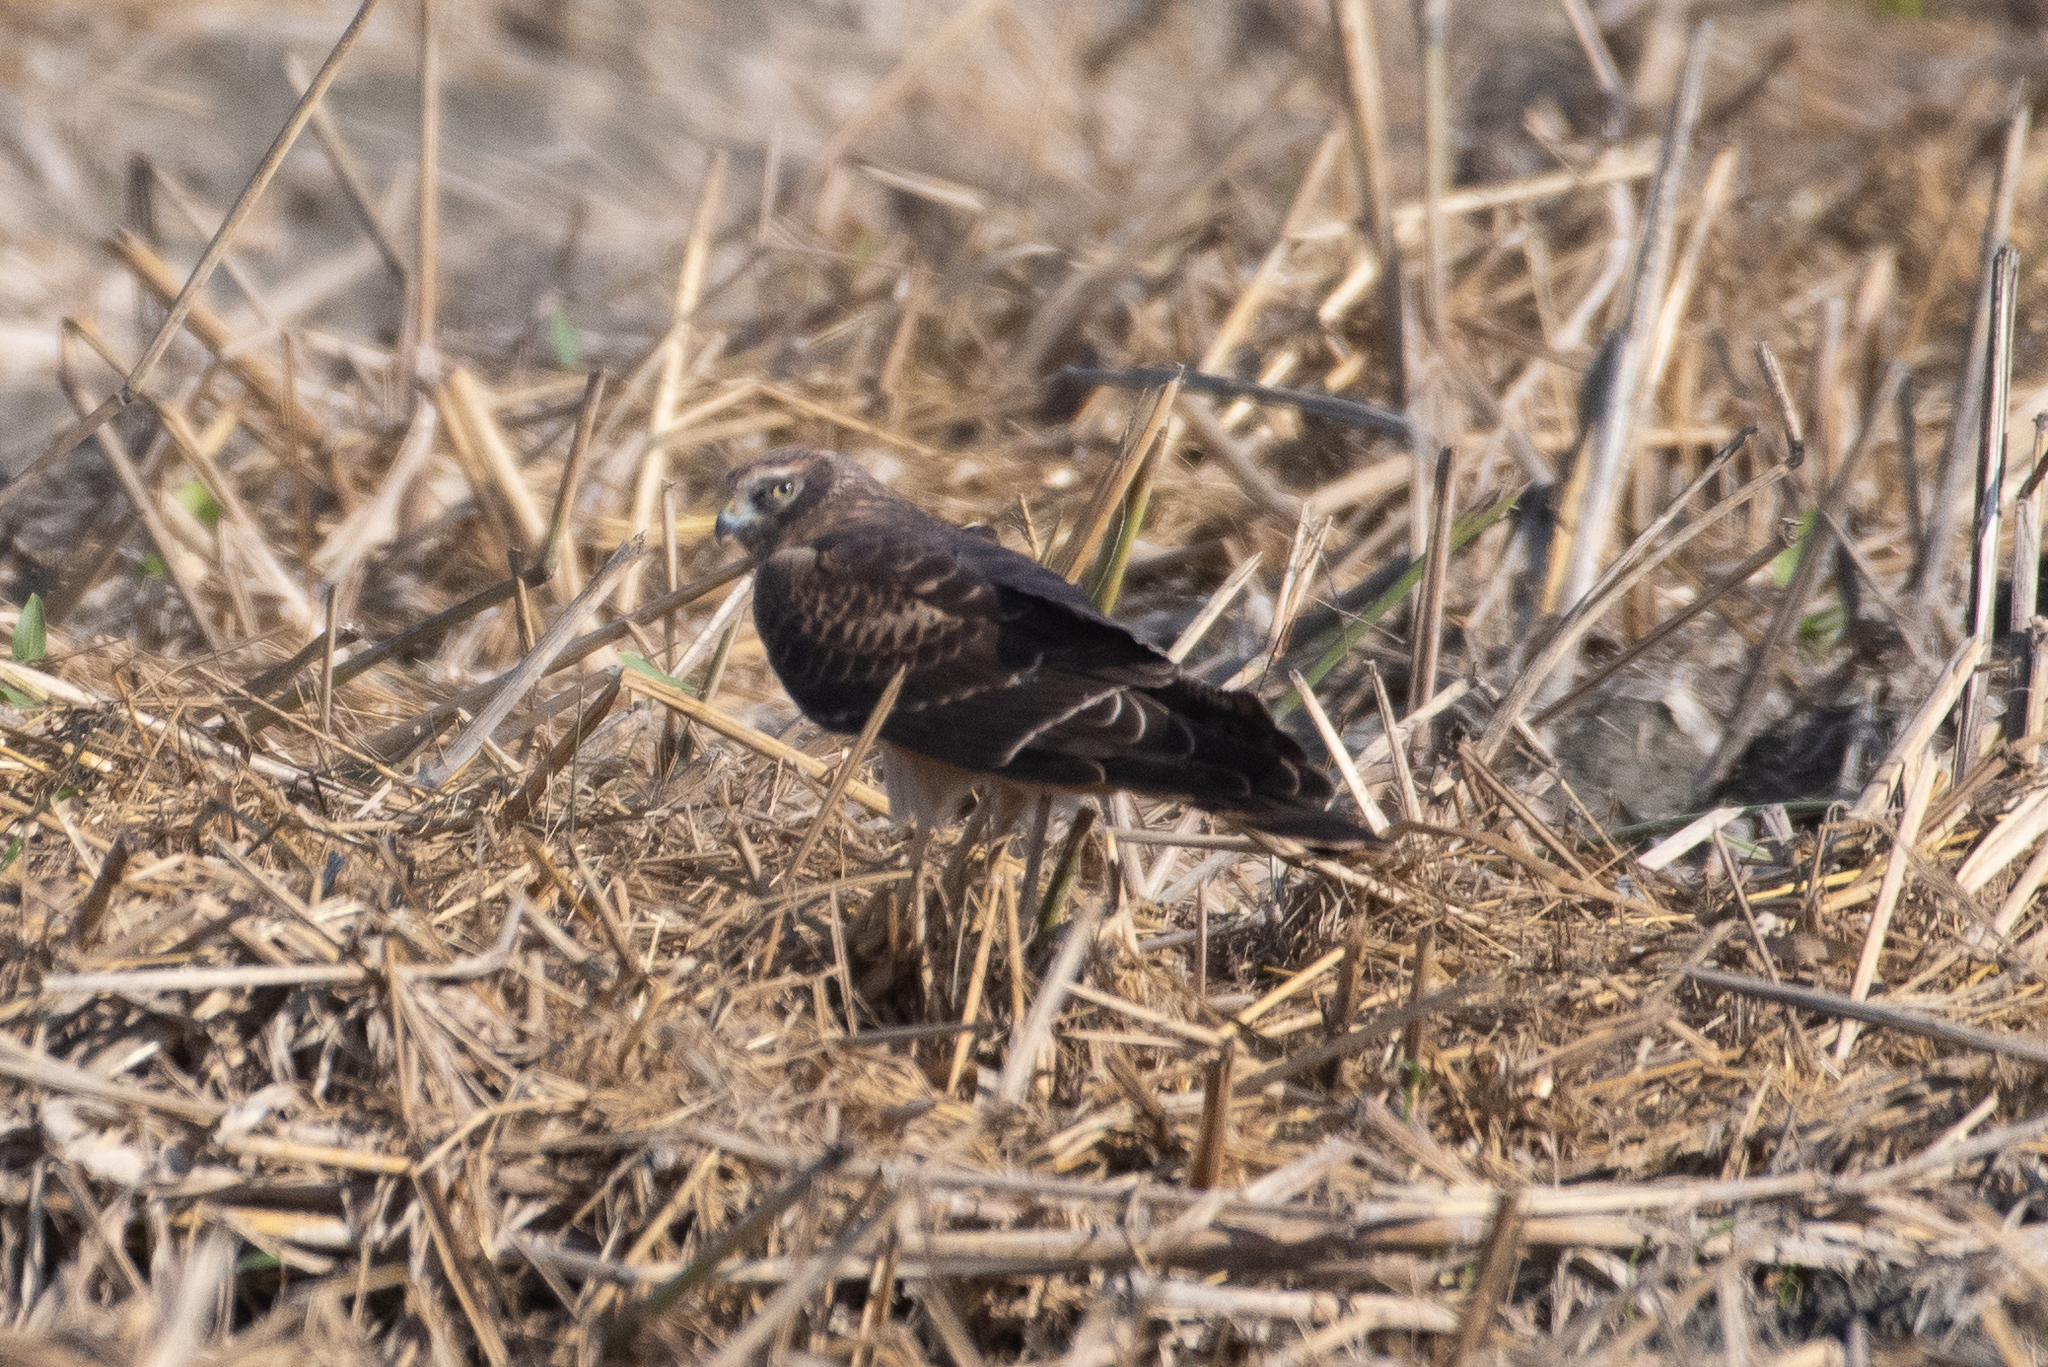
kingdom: Animalia
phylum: Chordata
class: Aves
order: Accipitriformes
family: Accipitridae
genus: Circus
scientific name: Circus cyaneus
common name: Hen harrier
